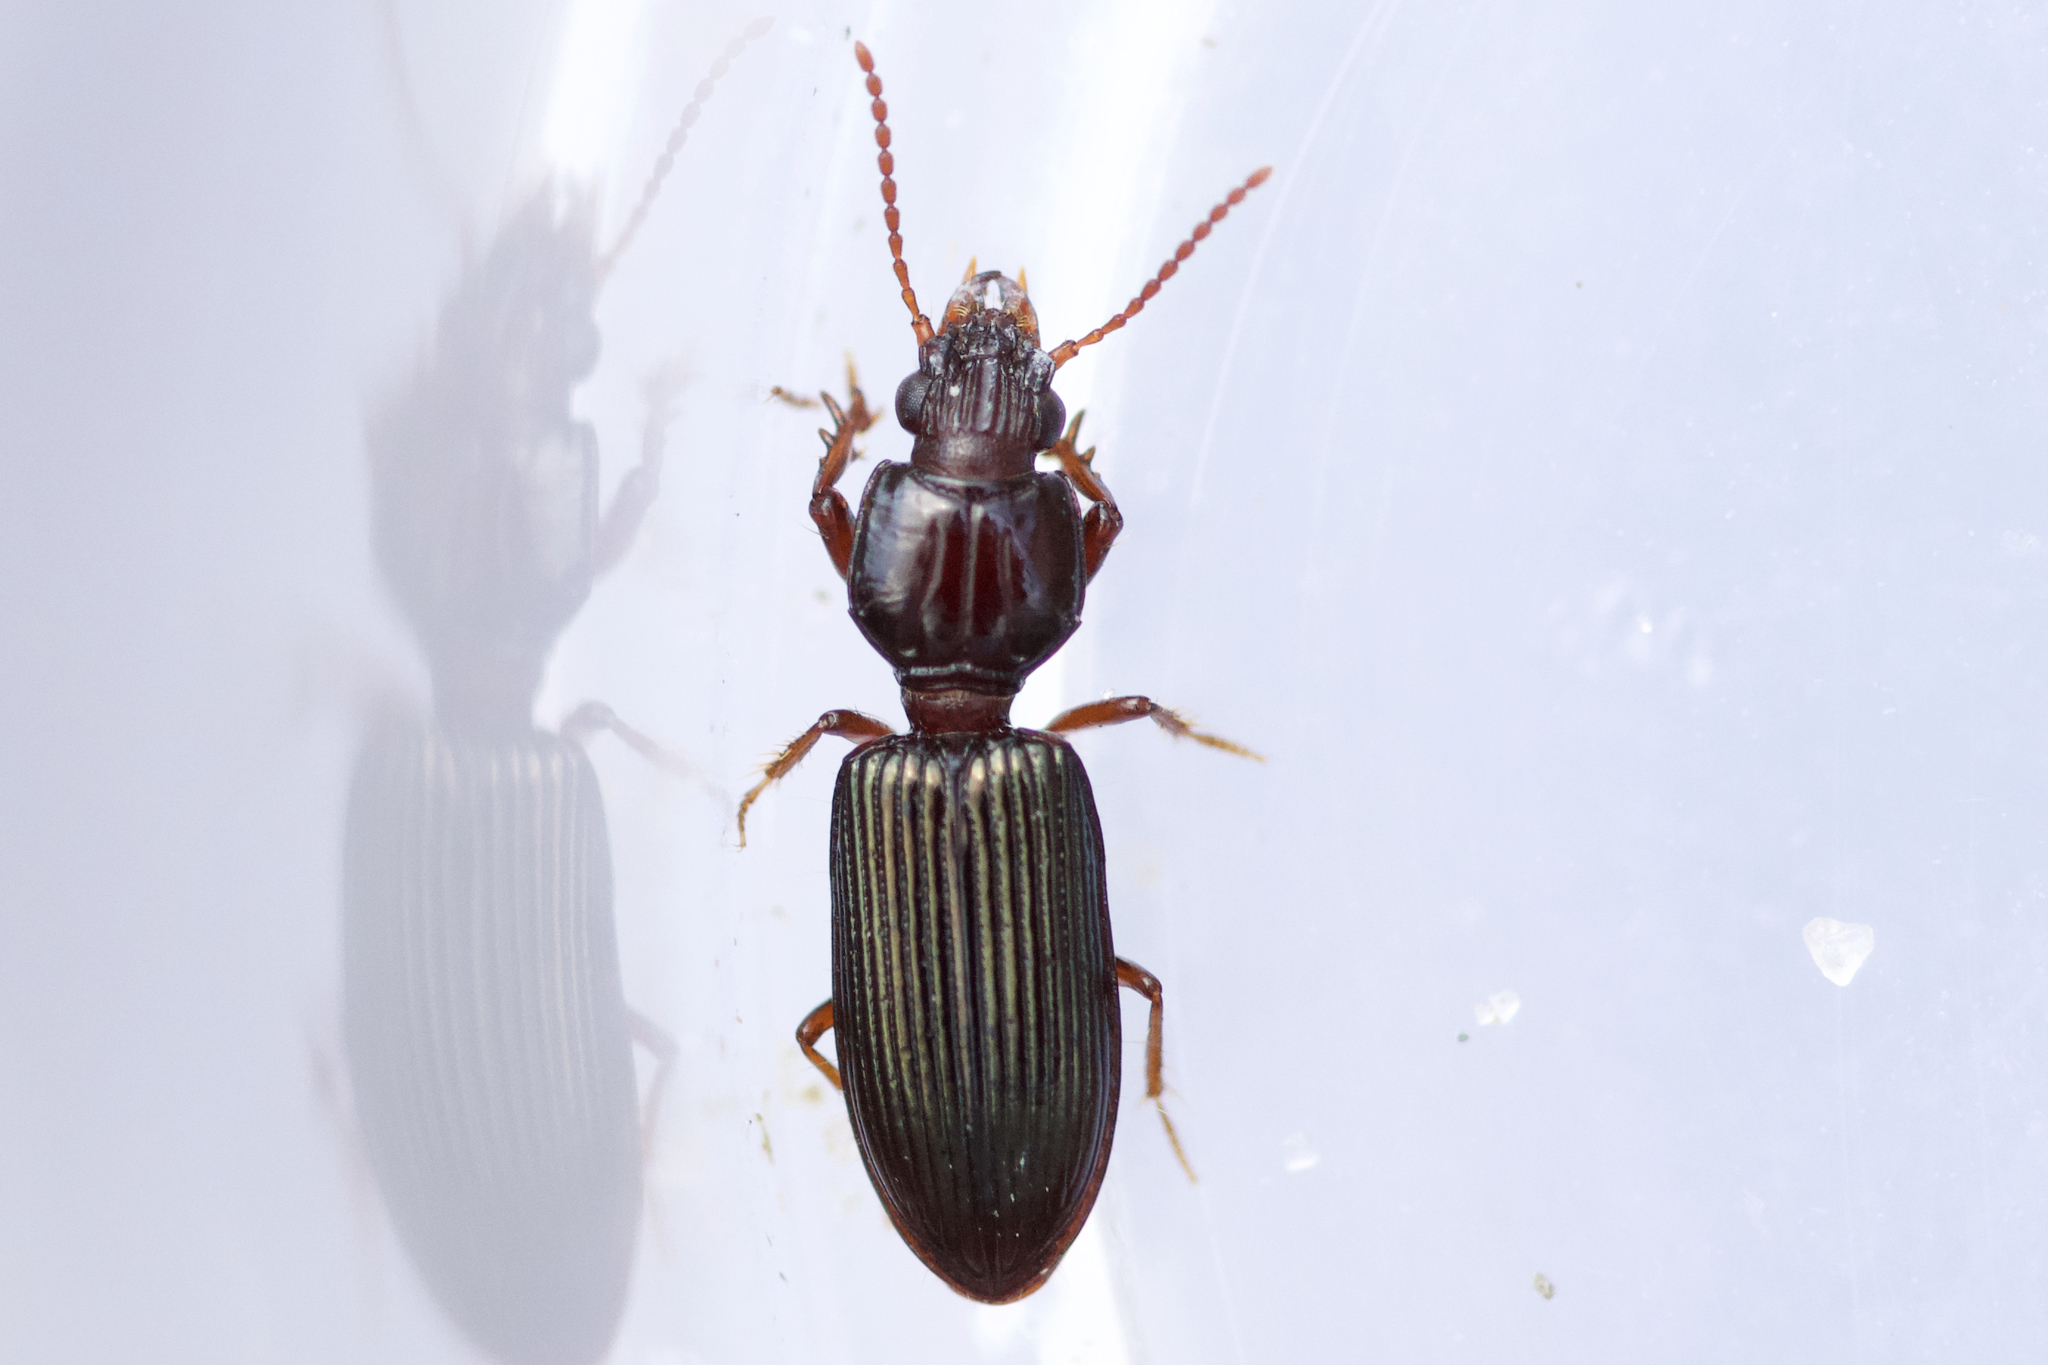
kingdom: Animalia
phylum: Arthropoda
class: Insecta
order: Coleoptera
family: Carabidae
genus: Schizogenius
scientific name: Schizogenius lineolatus
